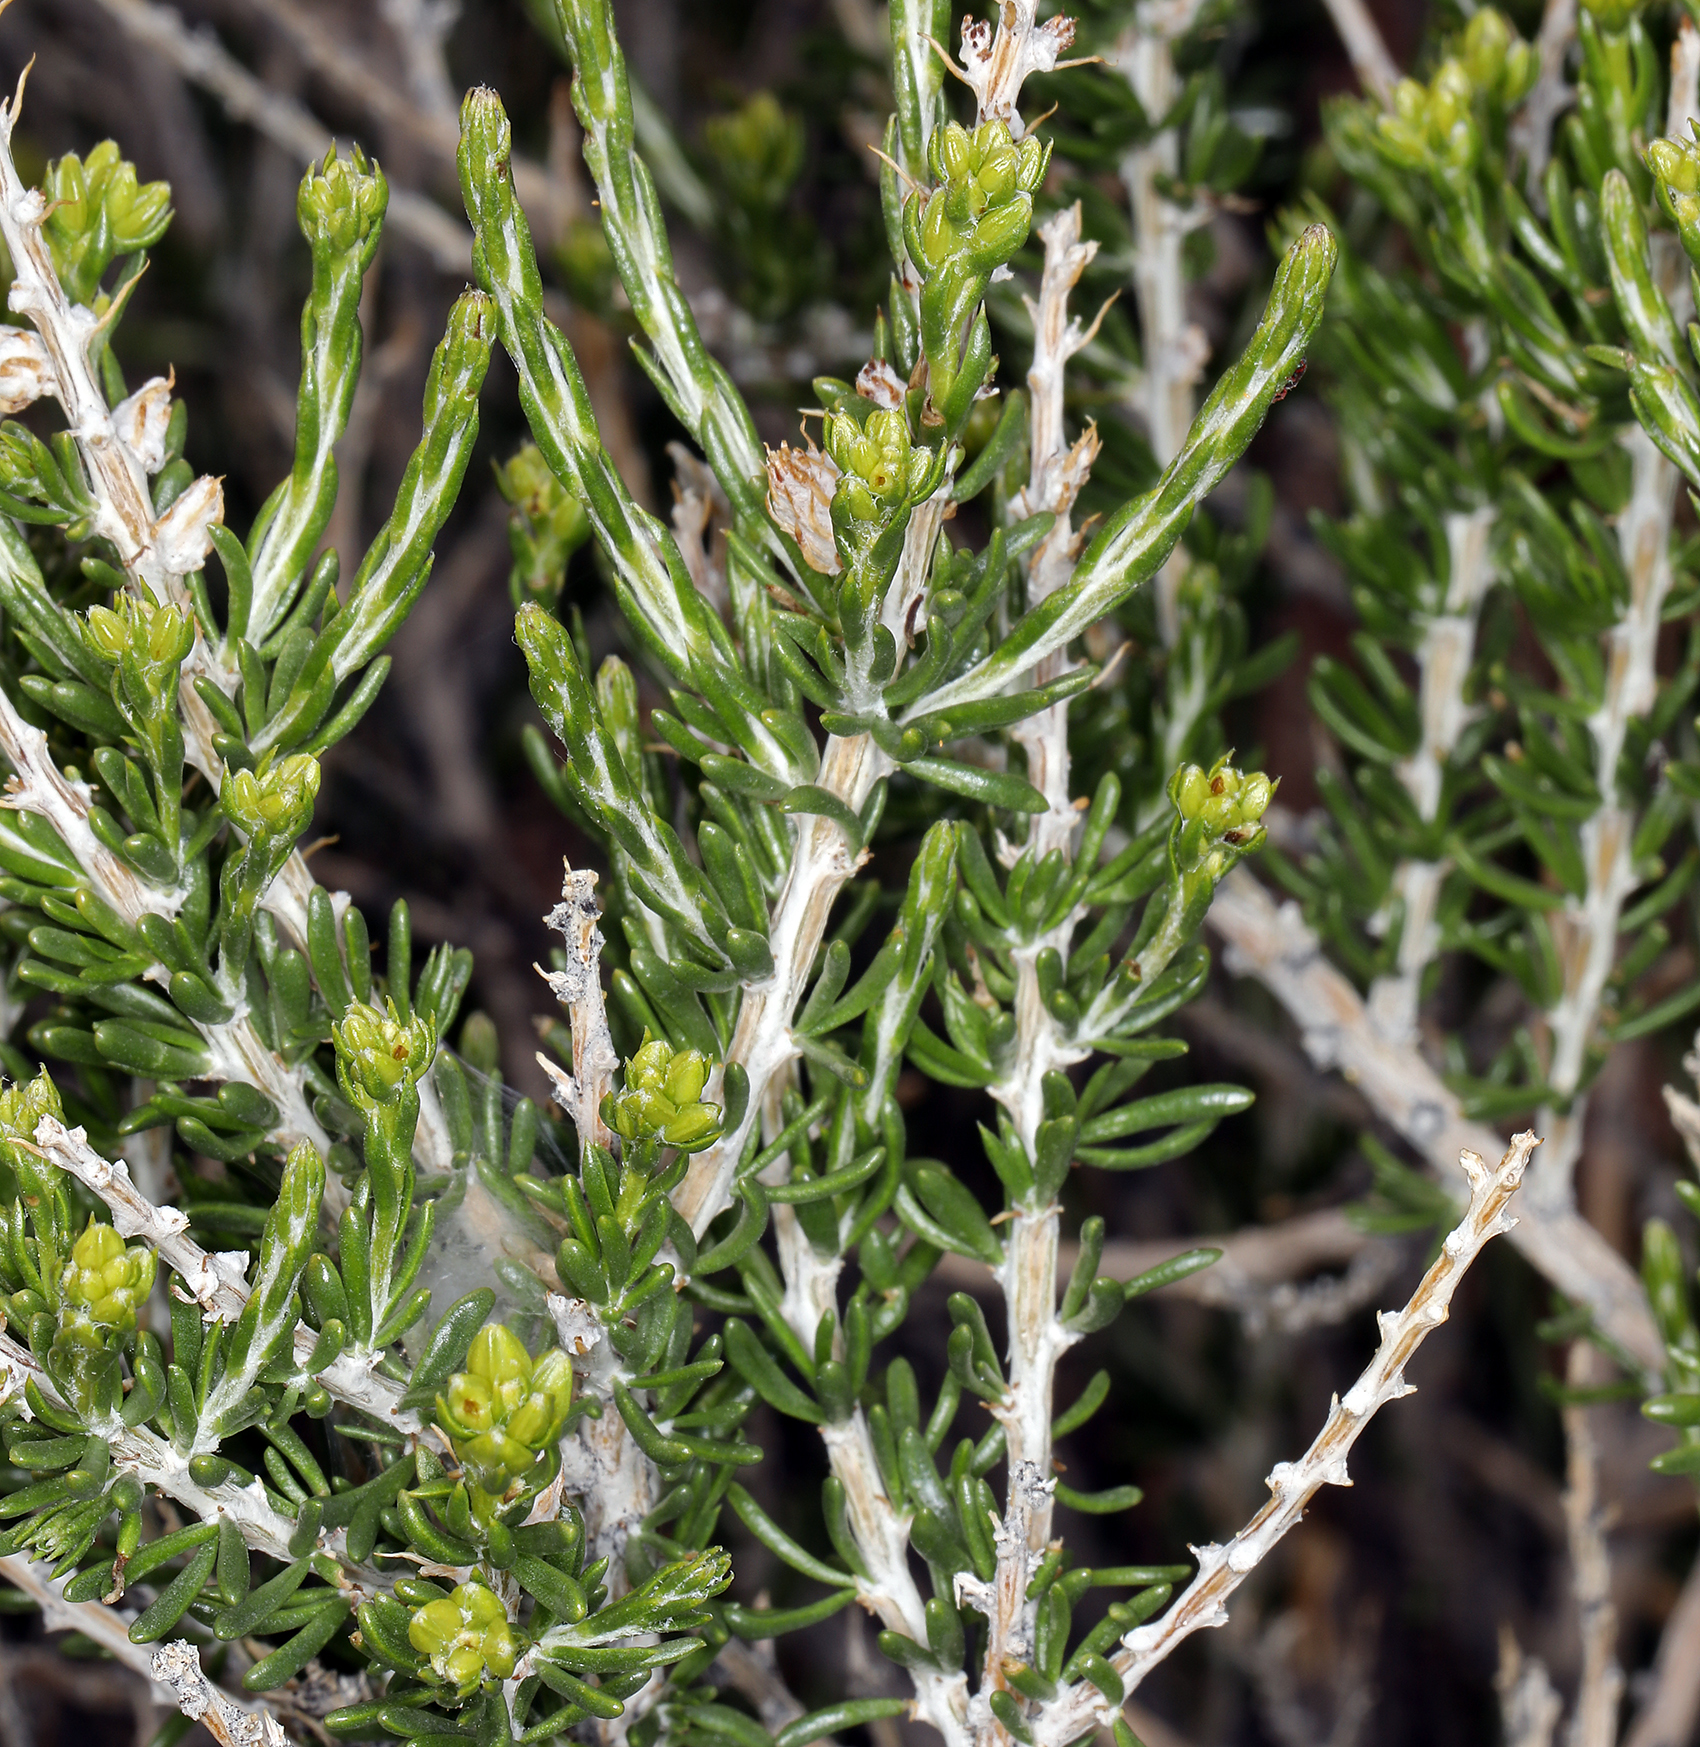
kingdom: Plantae
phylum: Tracheophyta
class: Magnoliopsida
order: Asterales
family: Asteraceae
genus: Tetradymia
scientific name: Tetradymia glabrata
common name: Smooth tetradymia
